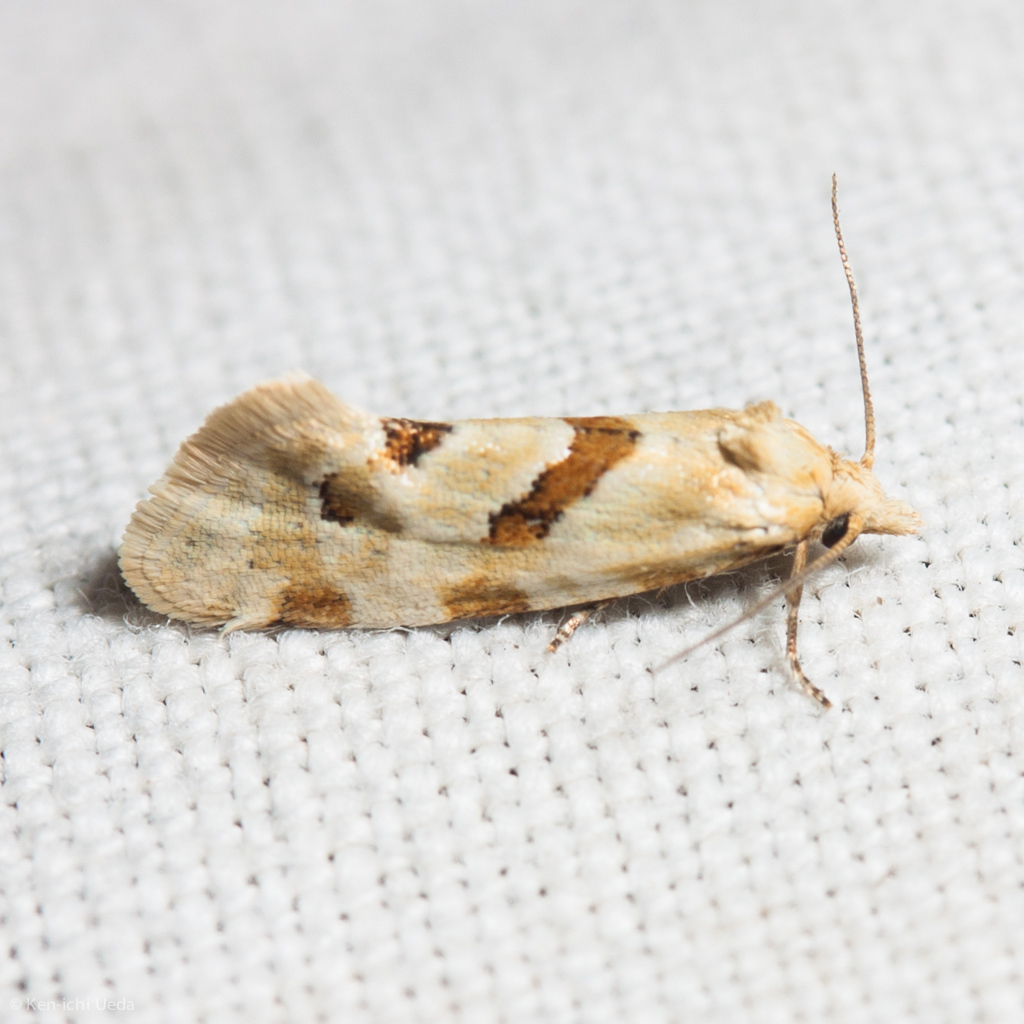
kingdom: Animalia
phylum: Arthropoda
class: Insecta
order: Lepidoptera
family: Tortricidae
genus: Aethes
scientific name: Aethes smeathmanniana
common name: Yarrow conch
